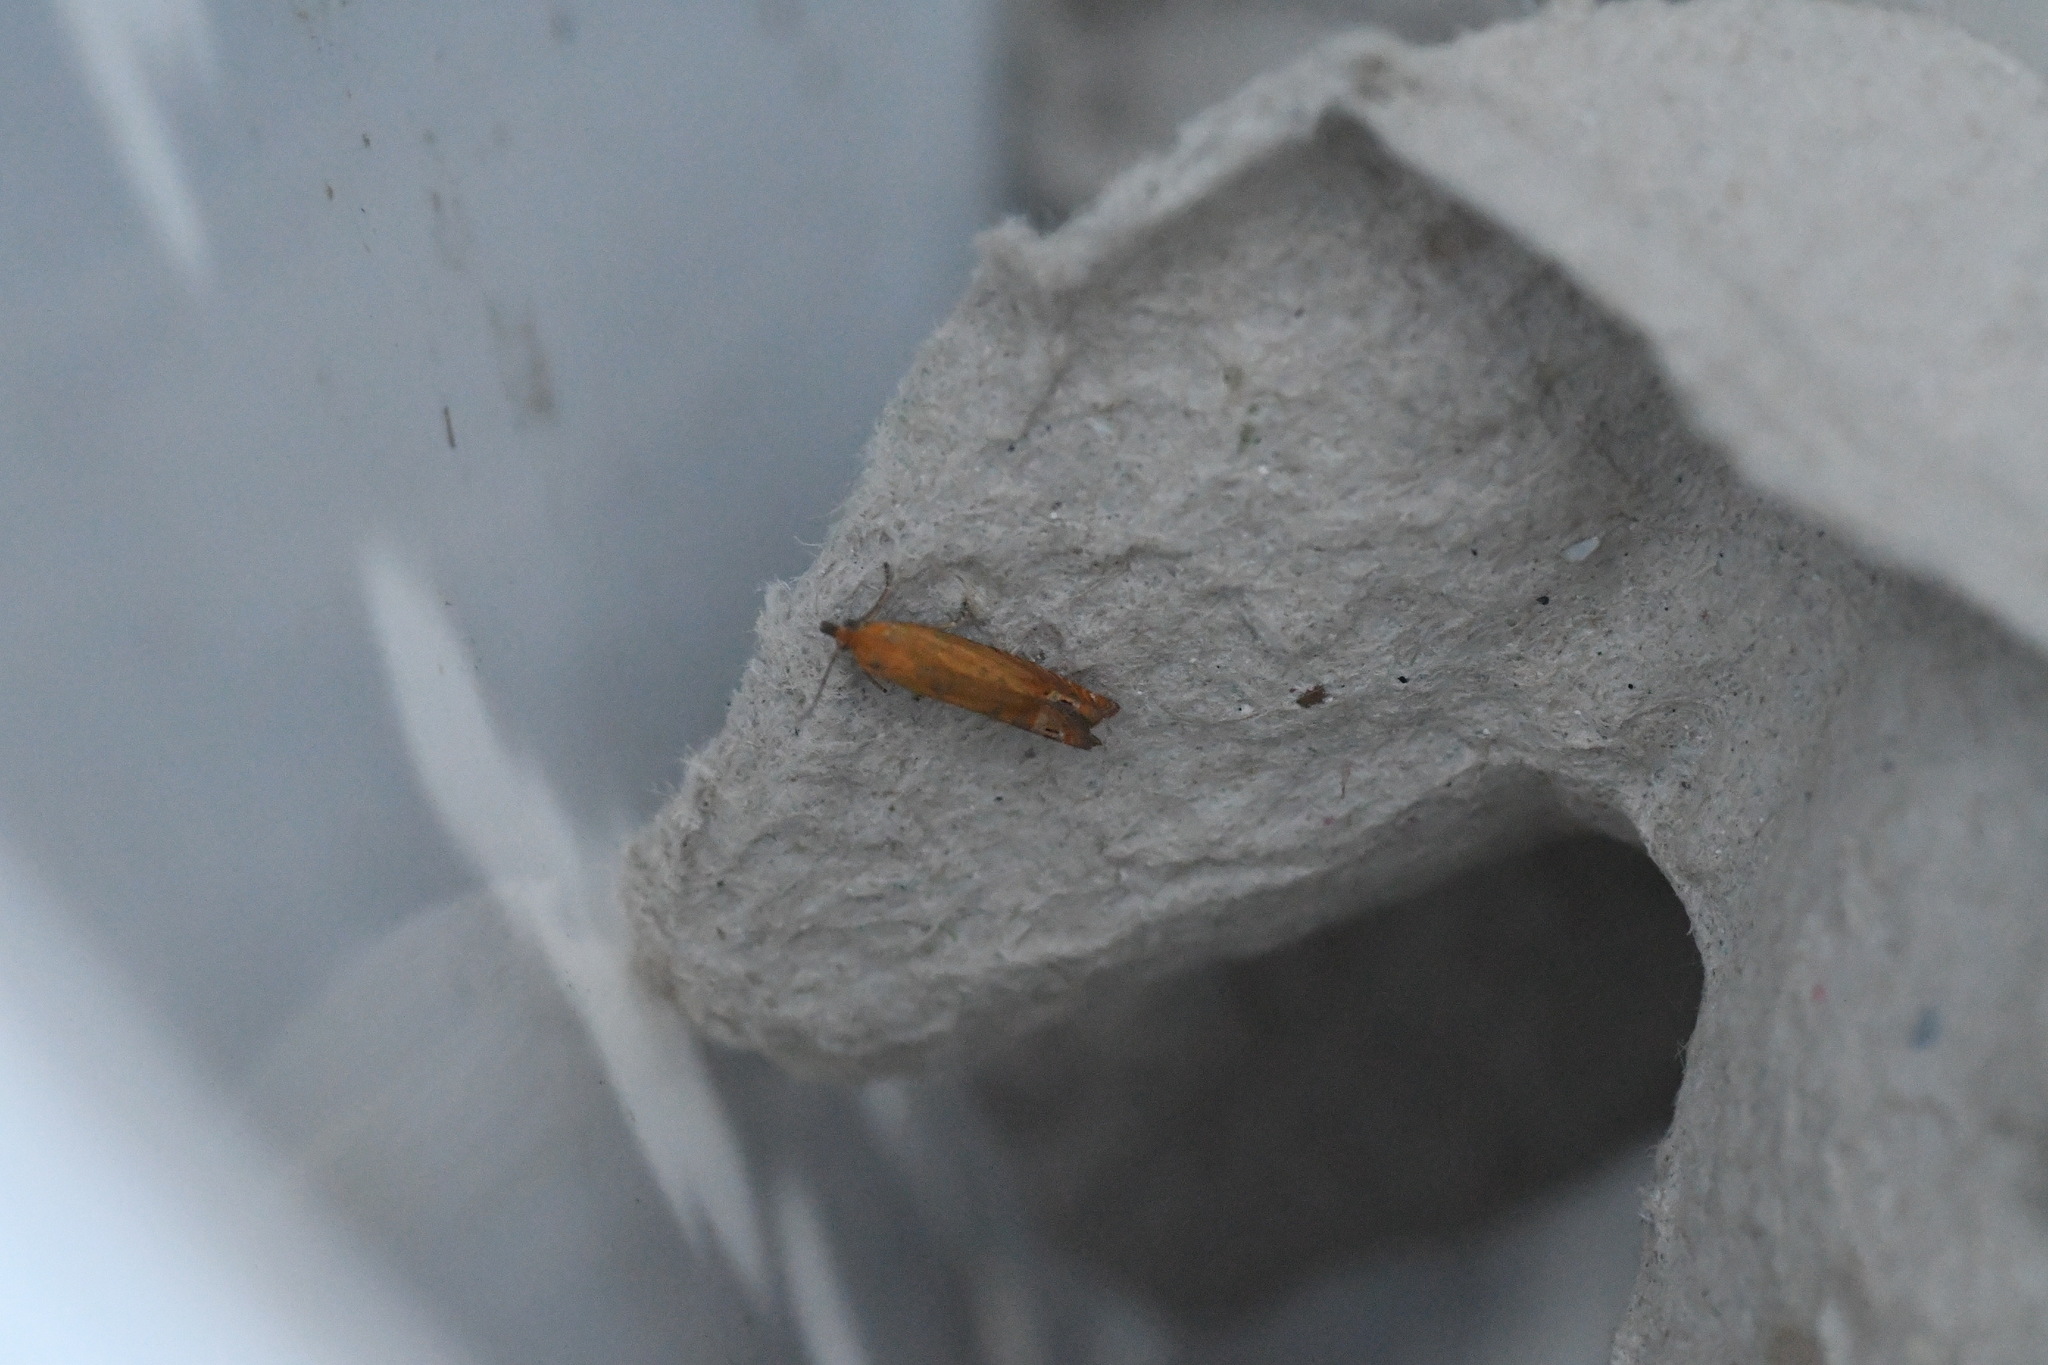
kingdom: Animalia
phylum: Arthropoda
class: Insecta
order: Lepidoptera
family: Tortricidae
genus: Lathronympha
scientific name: Lathronympha strigana
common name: Red piercer
